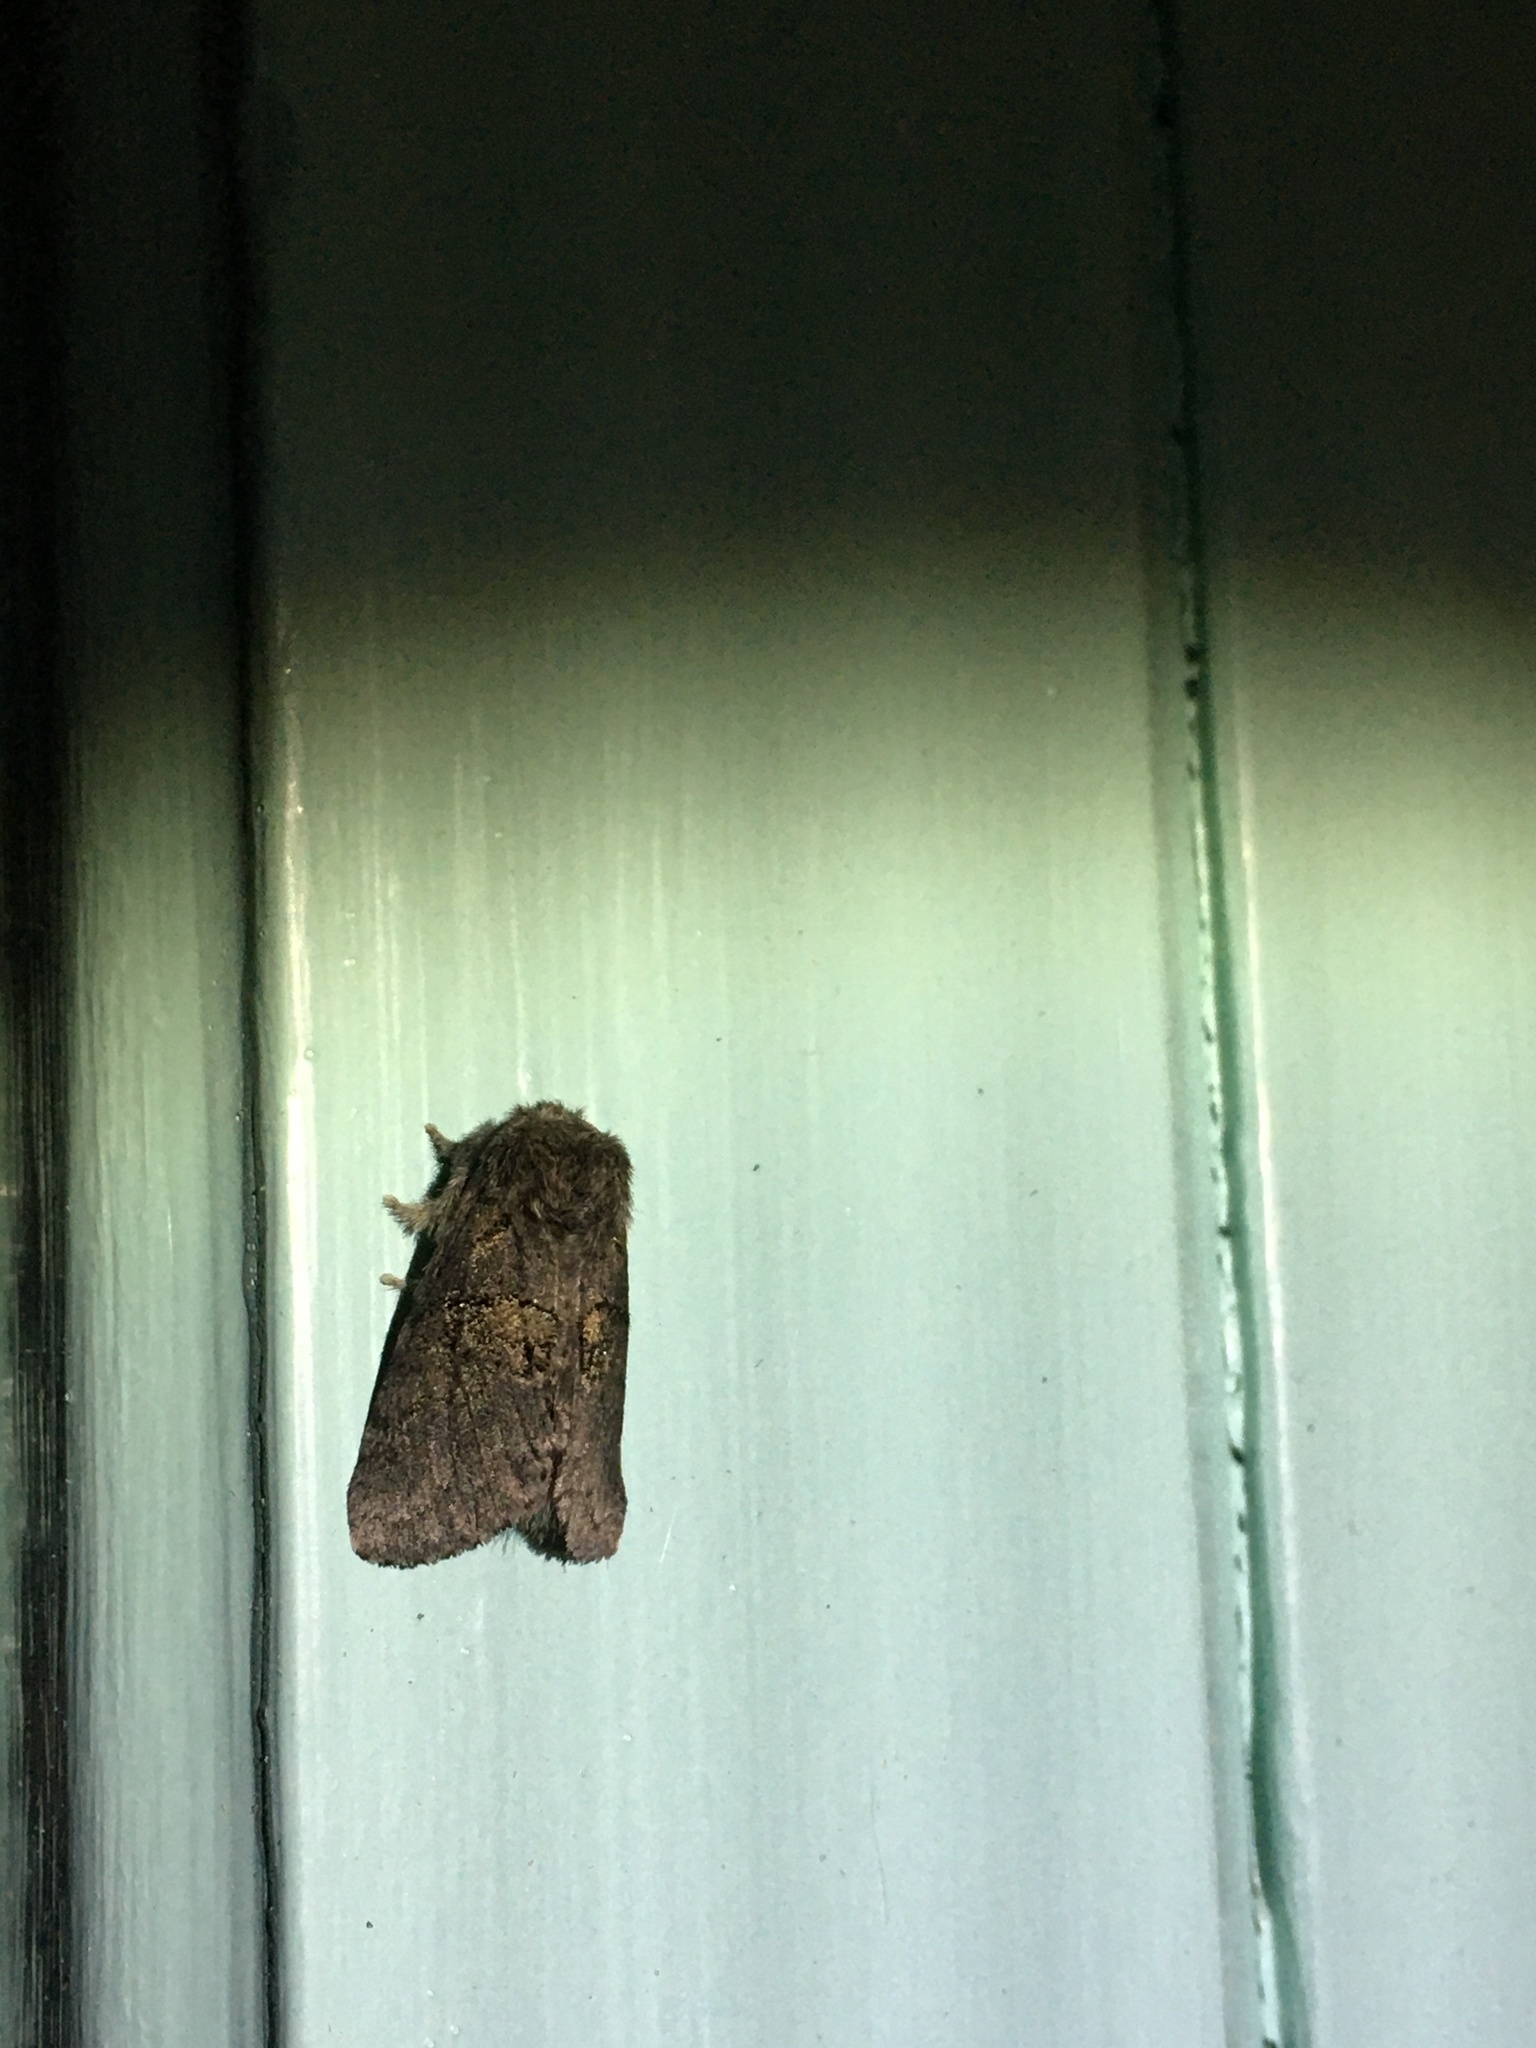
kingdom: Animalia
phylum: Arthropoda
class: Insecta
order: Lepidoptera
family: Notodontidae
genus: Gluphisia
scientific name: Gluphisia septentrionis
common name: Common gluphisia
